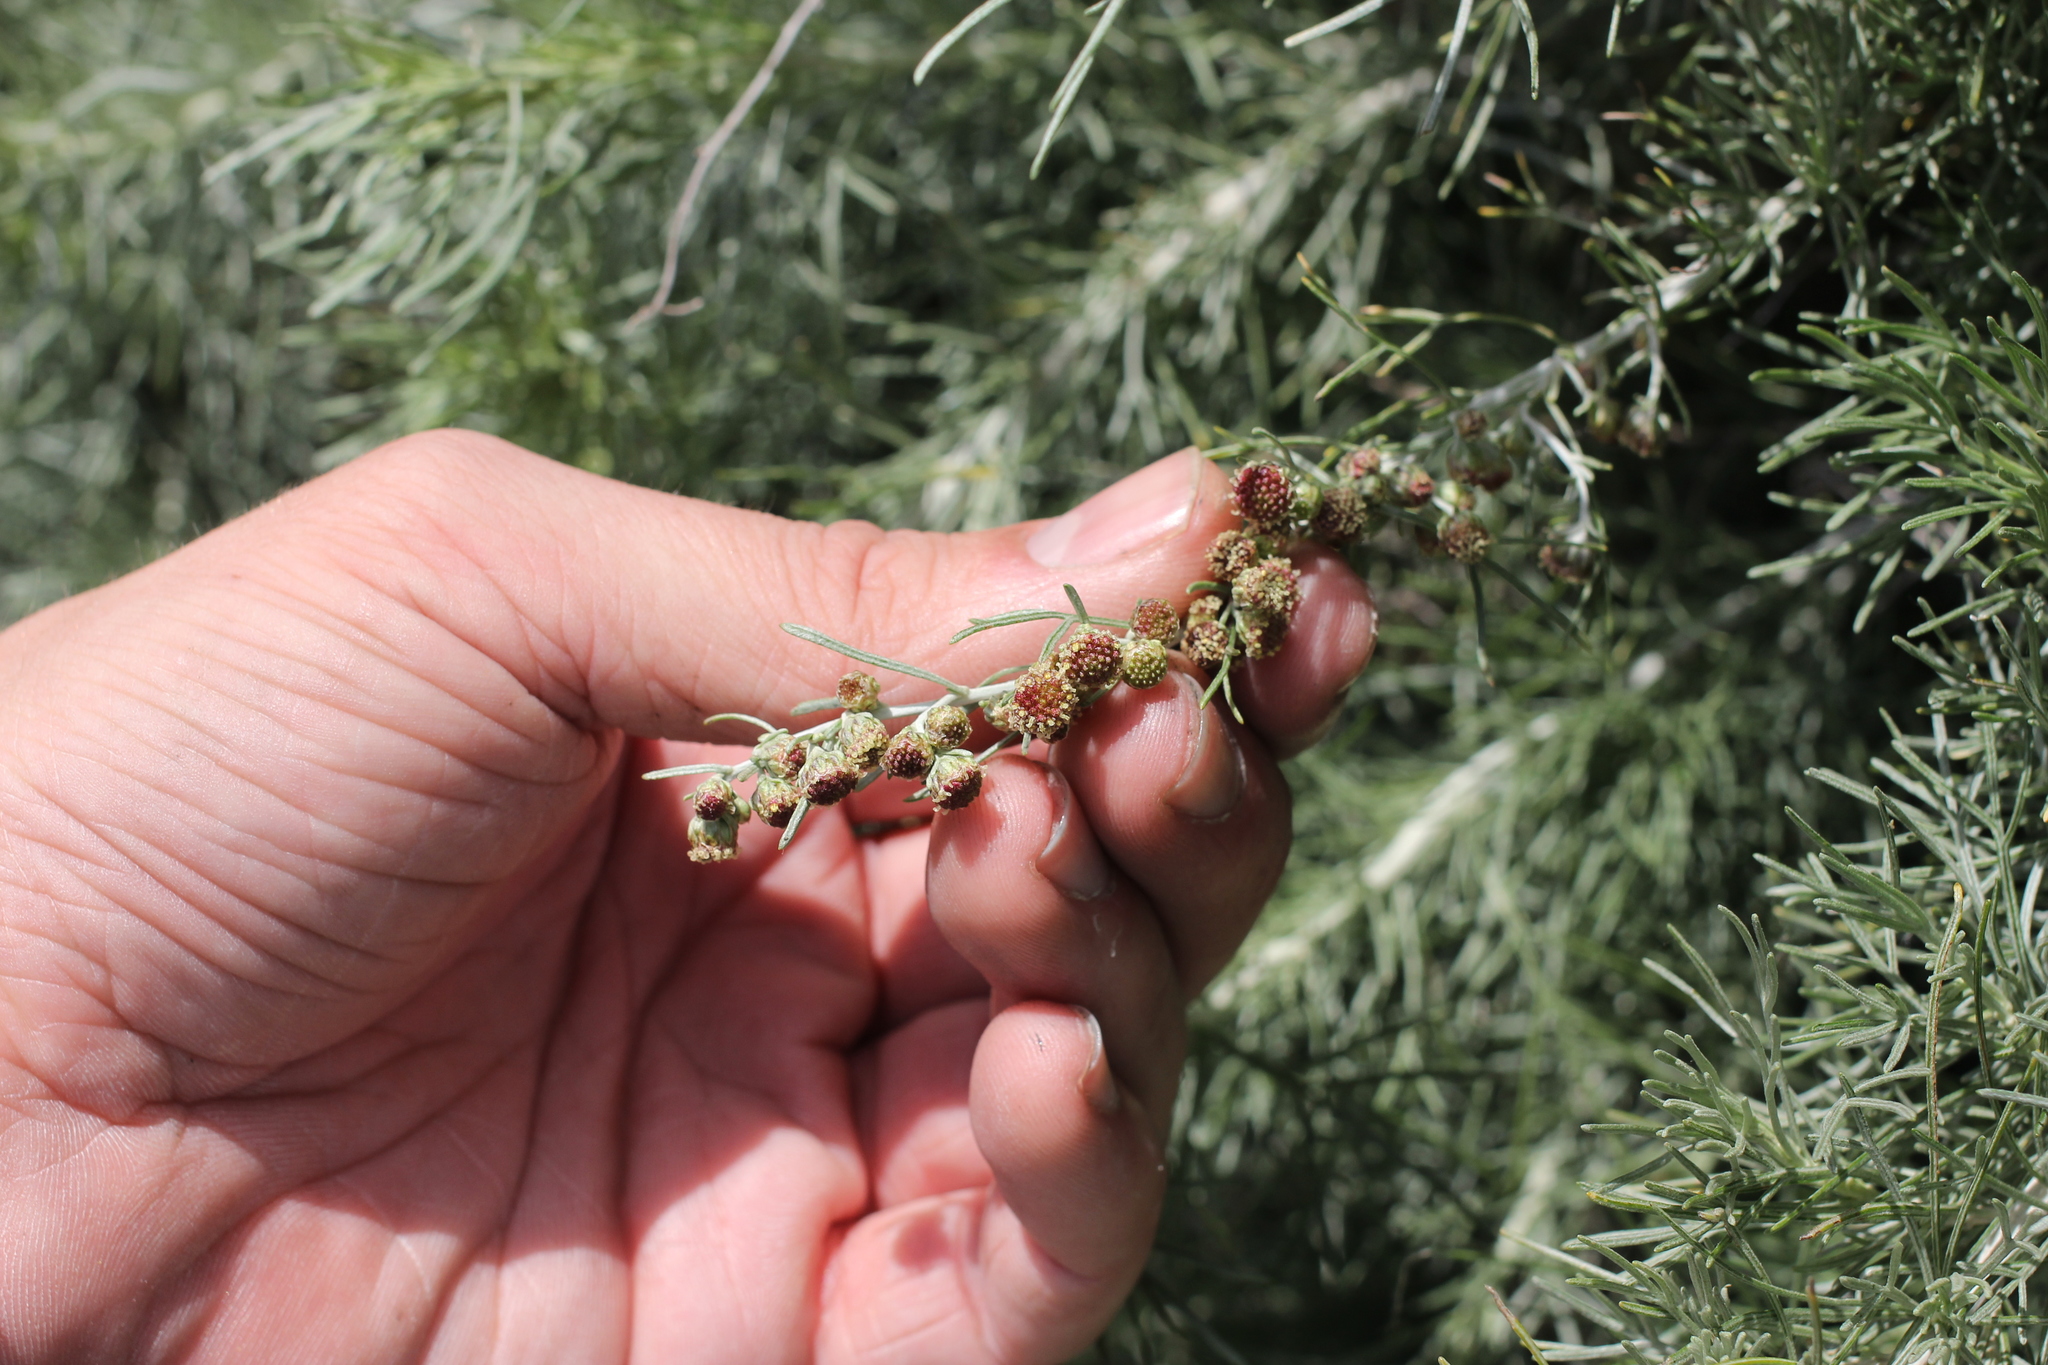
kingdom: Plantae
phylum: Tracheophyta
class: Magnoliopsida
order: Asterales
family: Asteraceae
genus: Artemisia
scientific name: Artemisia californica
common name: California sagebrush
